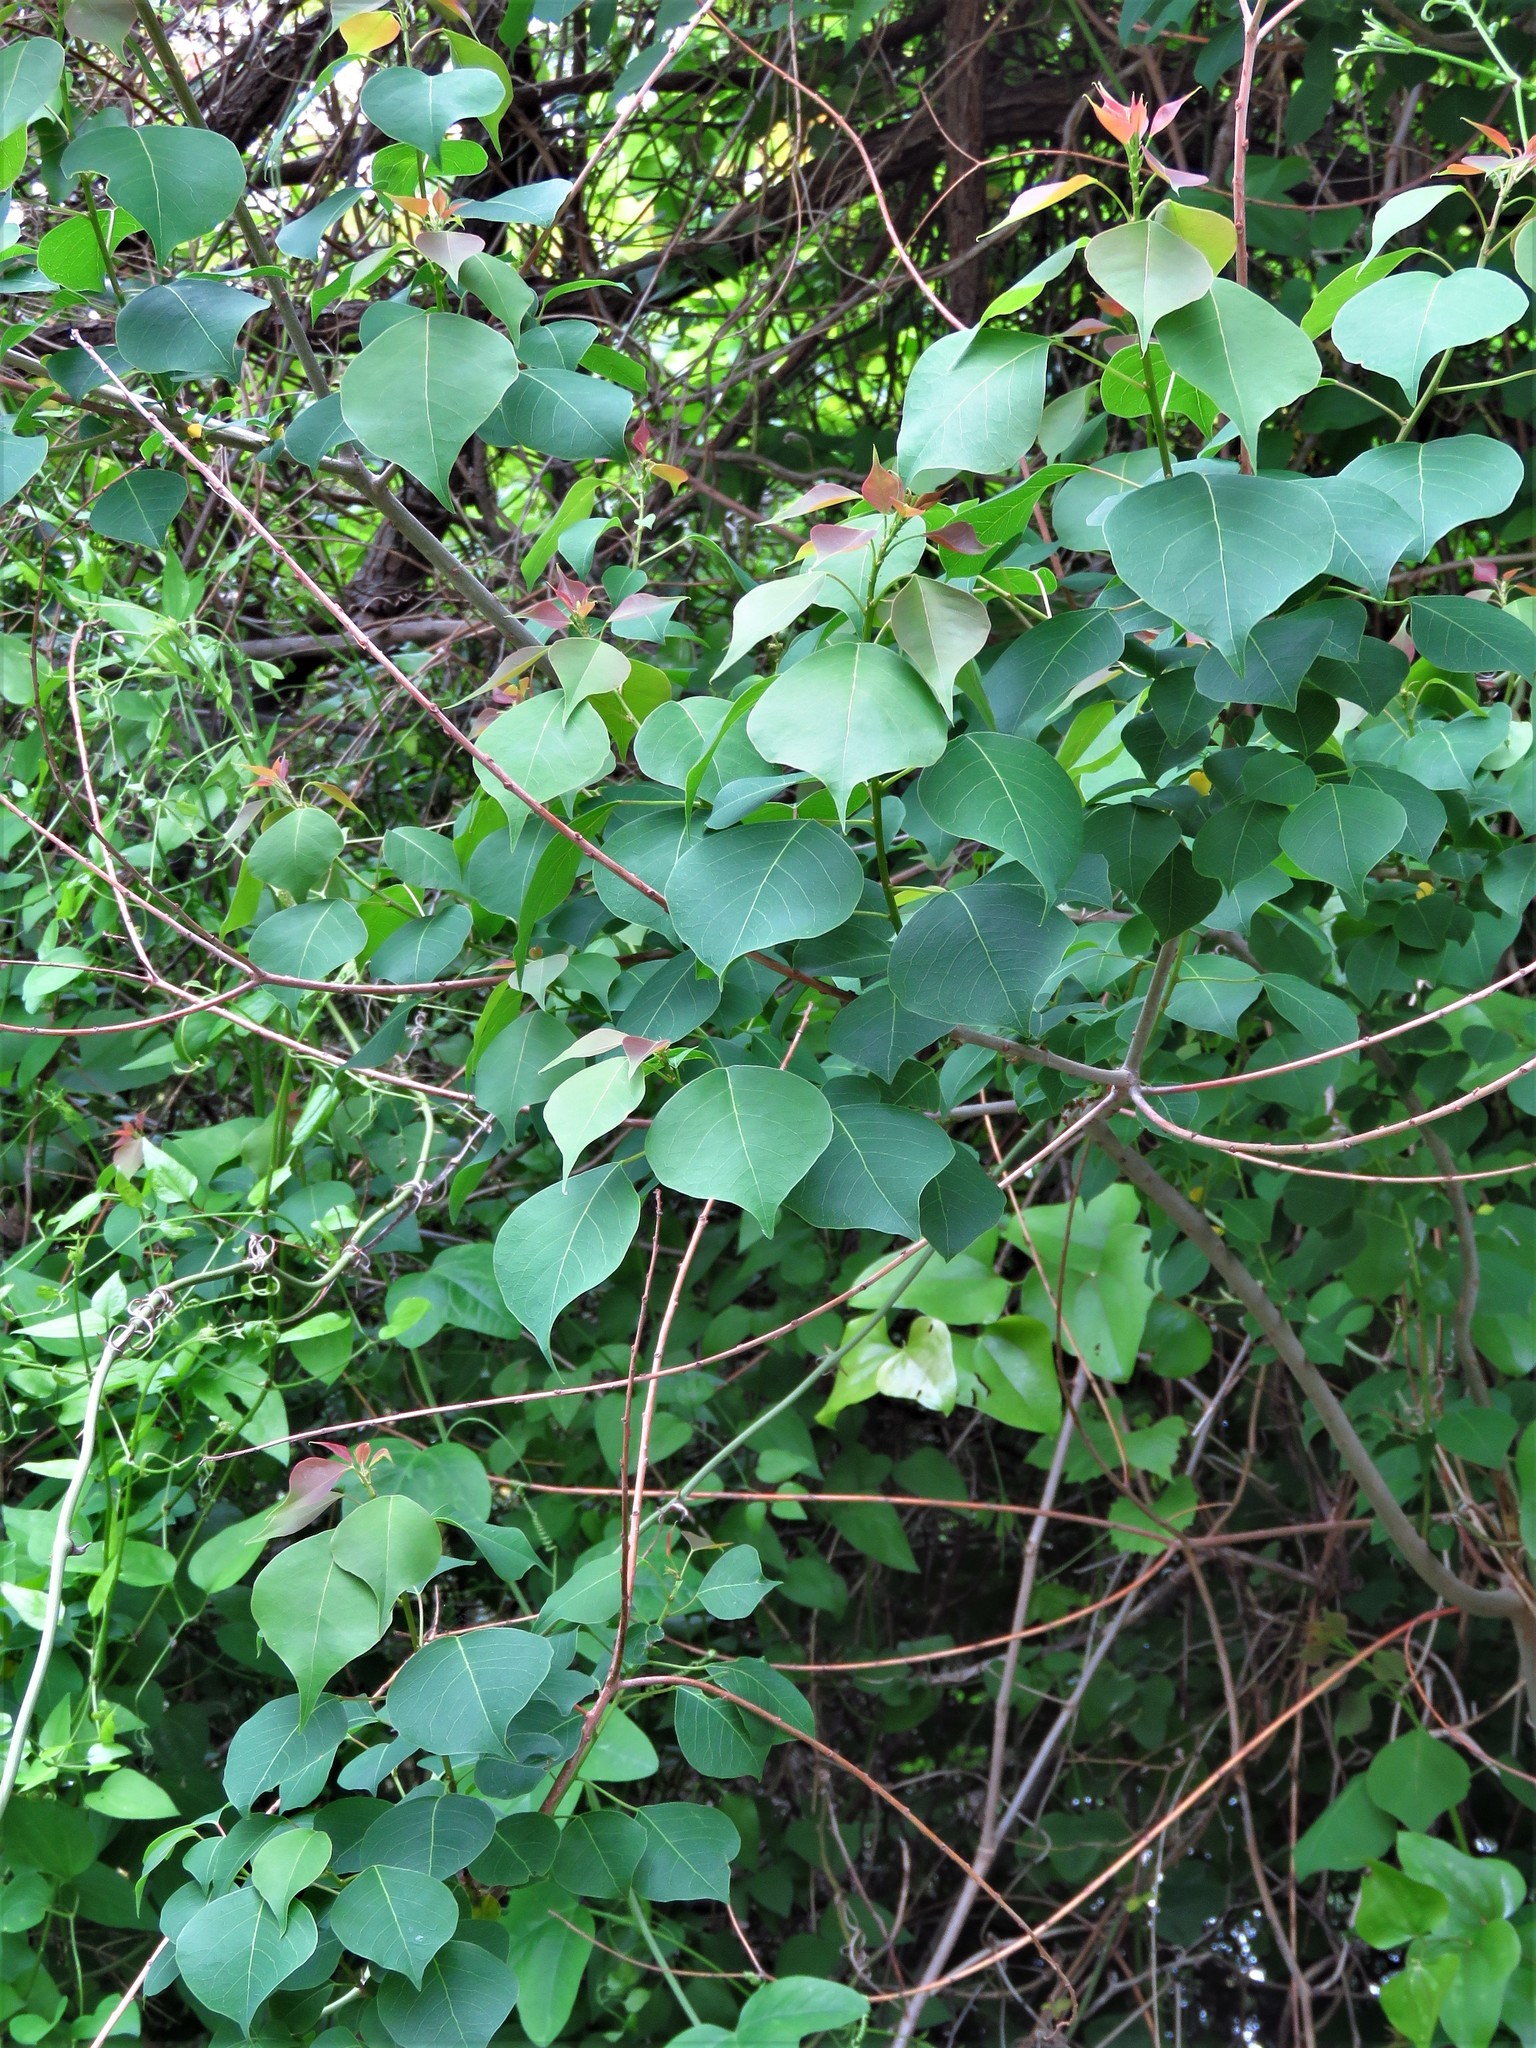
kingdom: Plantae
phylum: Tracheophyta
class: Magnoliopsida
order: Malpighiales
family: Euphorbiaceae
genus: Triadica
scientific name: Triadica sebifera
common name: Chinese tallow
